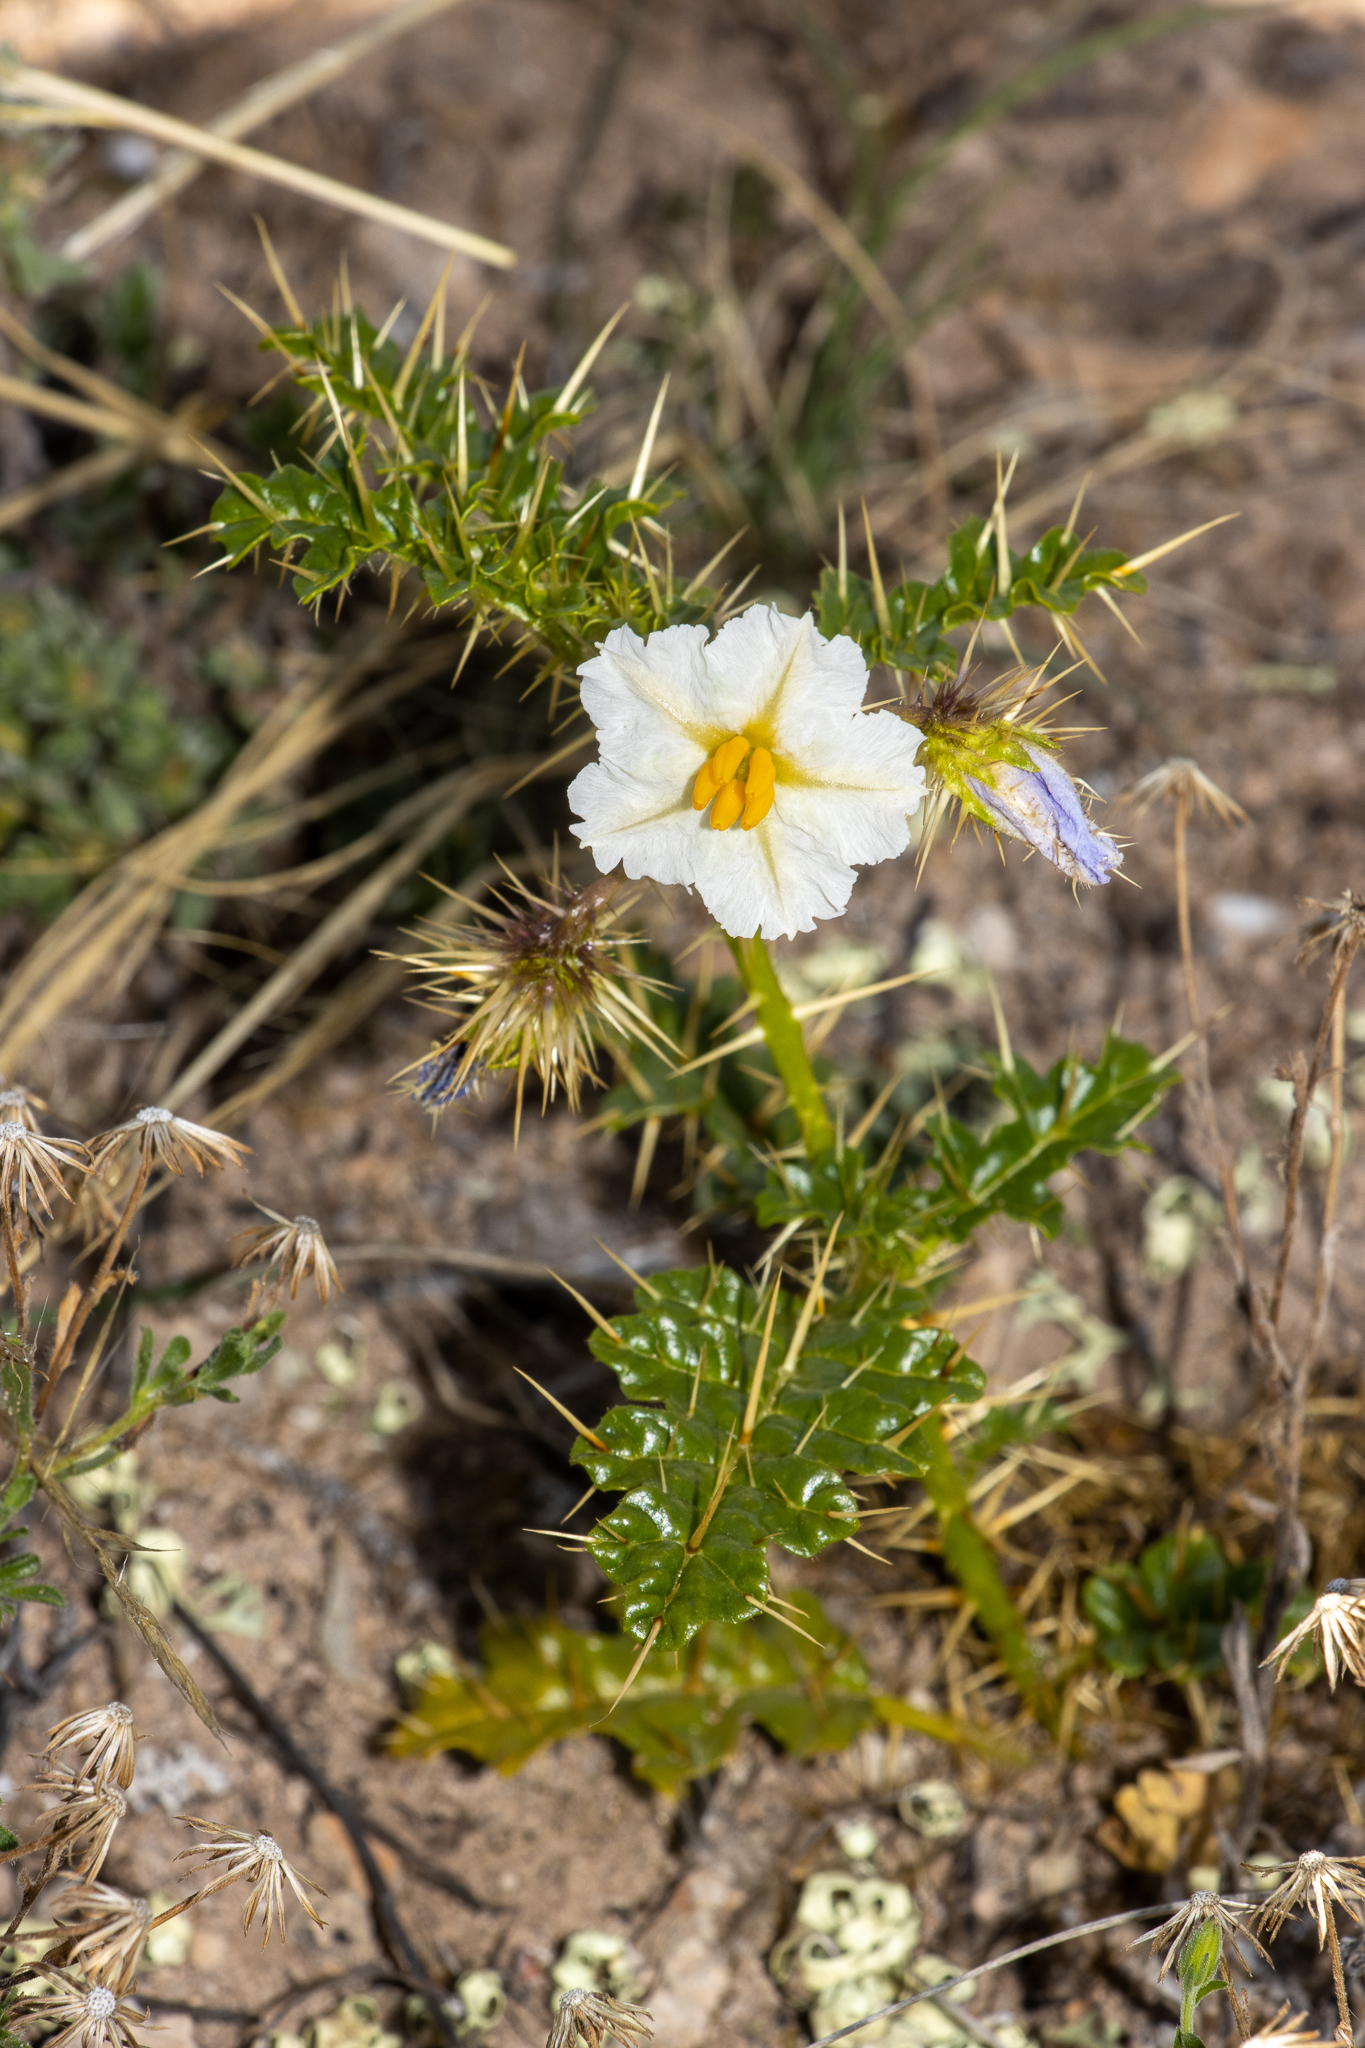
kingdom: Plantae
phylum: Tracheophyta
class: Magnoliopsida
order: Solanales
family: Solanaceae
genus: Solanum
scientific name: Solanum hystrix
